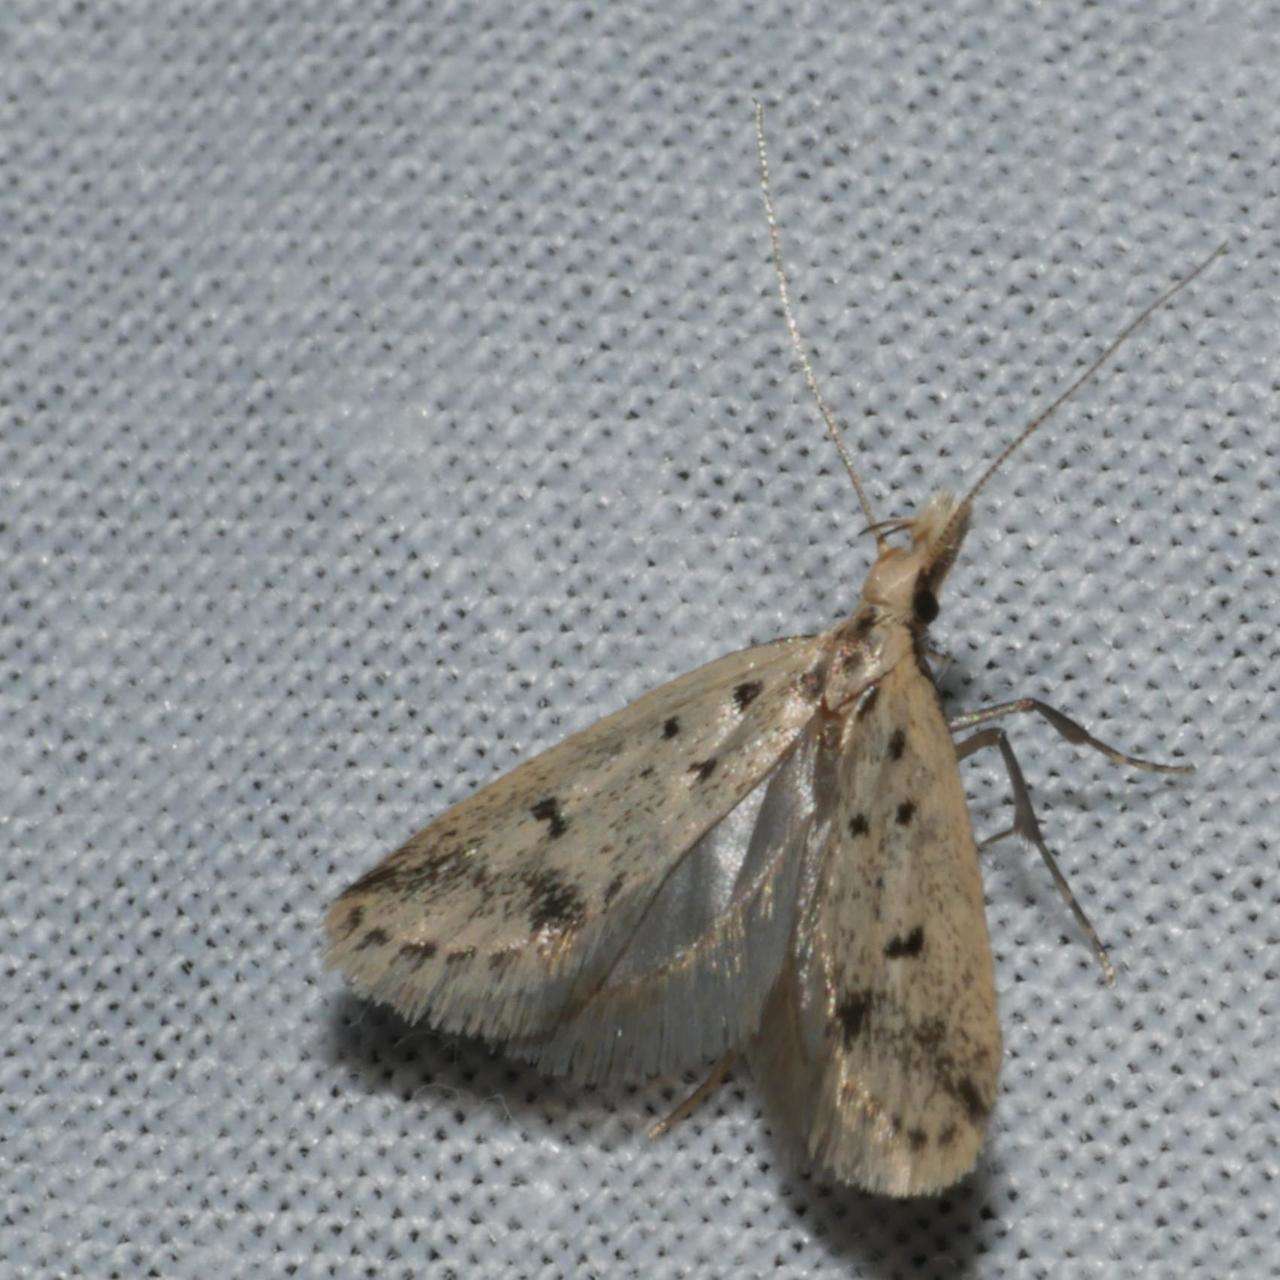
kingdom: Animalia
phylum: Arthropoda
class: Insecta
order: Lepidoptera
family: Oecophoridae
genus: Atheropla
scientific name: Atheropla decaspila
